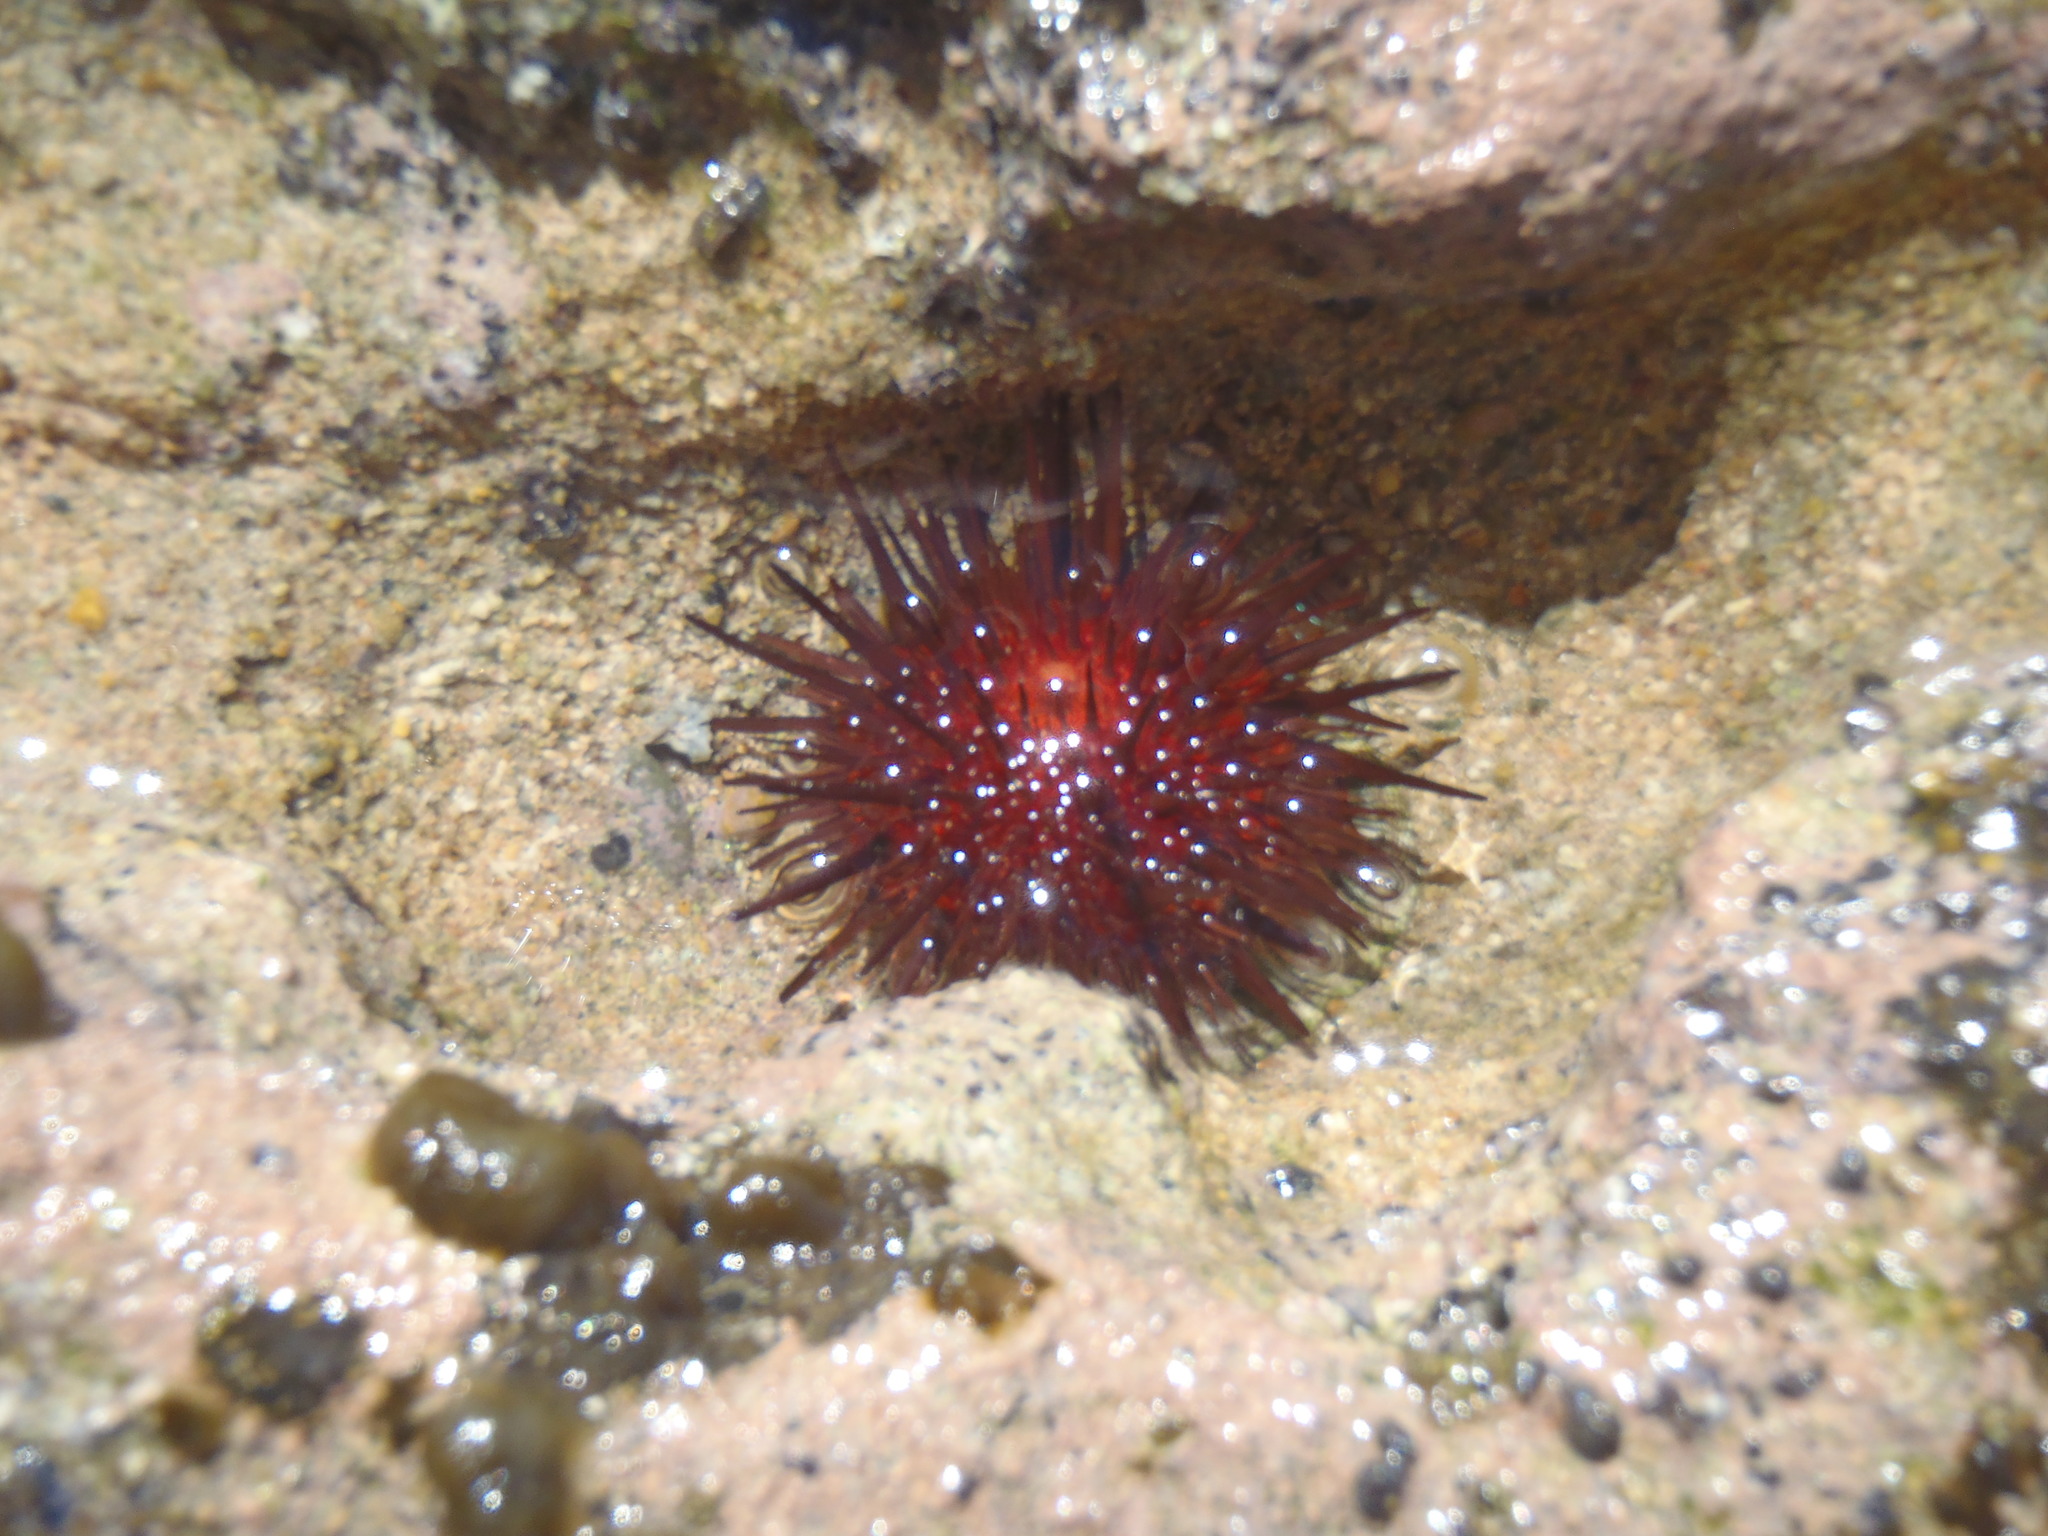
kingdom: Animalia
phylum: Echinodermata
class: Echinoidea
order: Camarodonta
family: Echinometridae
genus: Echinometra
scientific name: Echinometra lucunter
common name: Rock urchin
